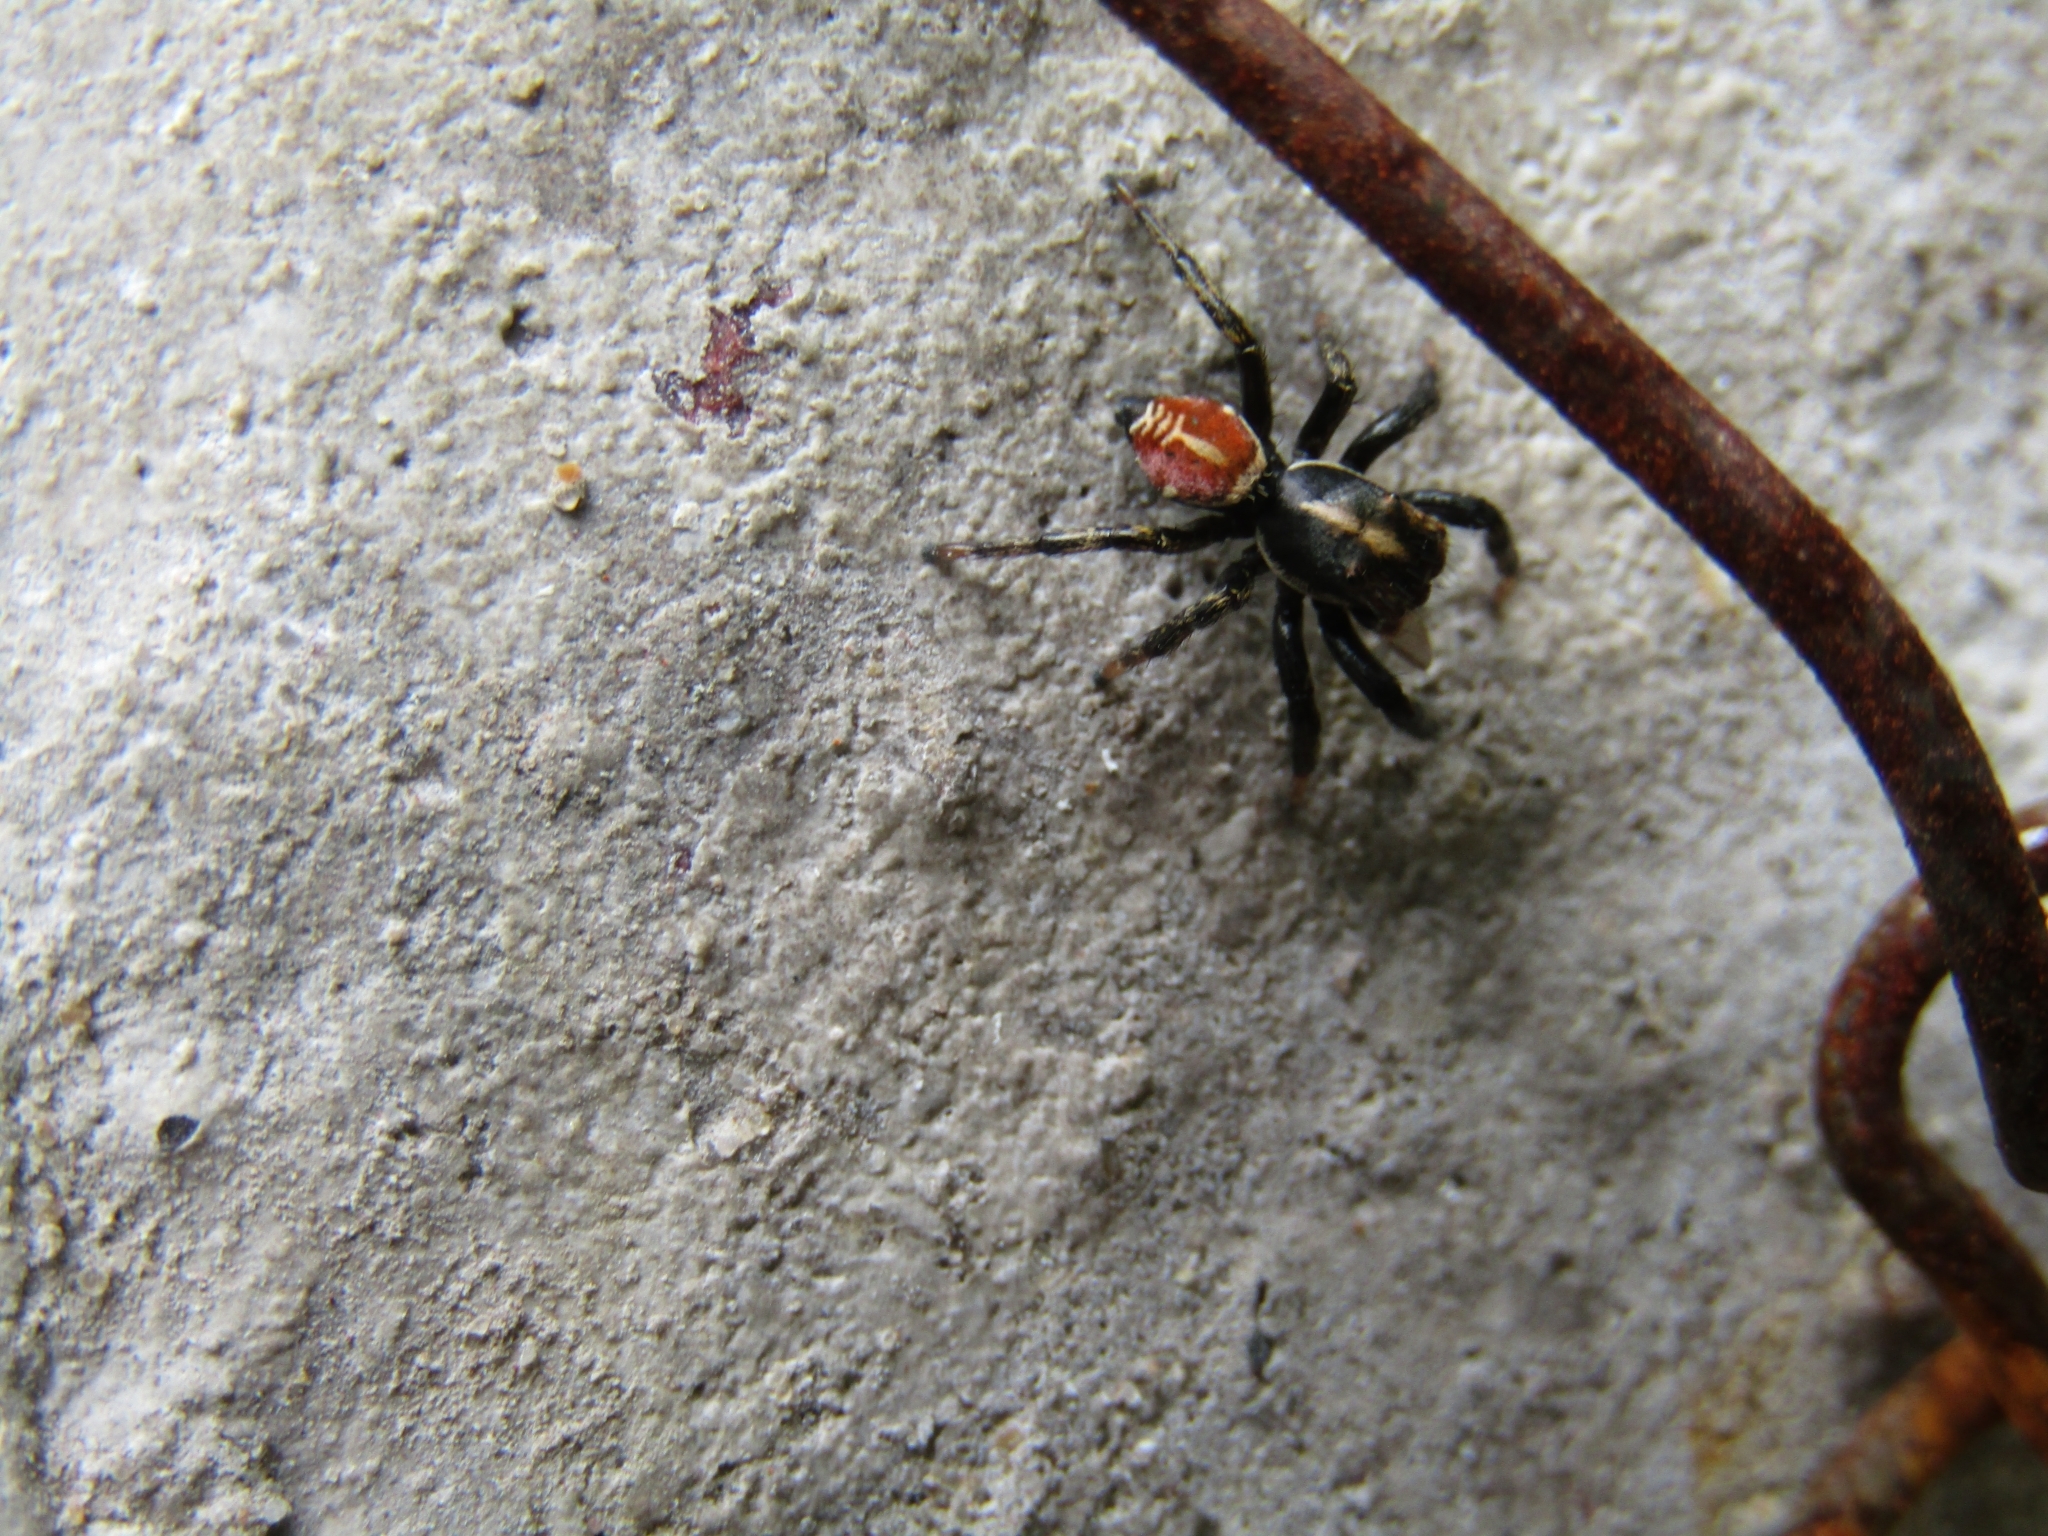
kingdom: Animalia
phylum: Arthropoda
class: Arachnida
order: Araneae
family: Salticidae
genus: Phiale
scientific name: Phiale roburifoliata
